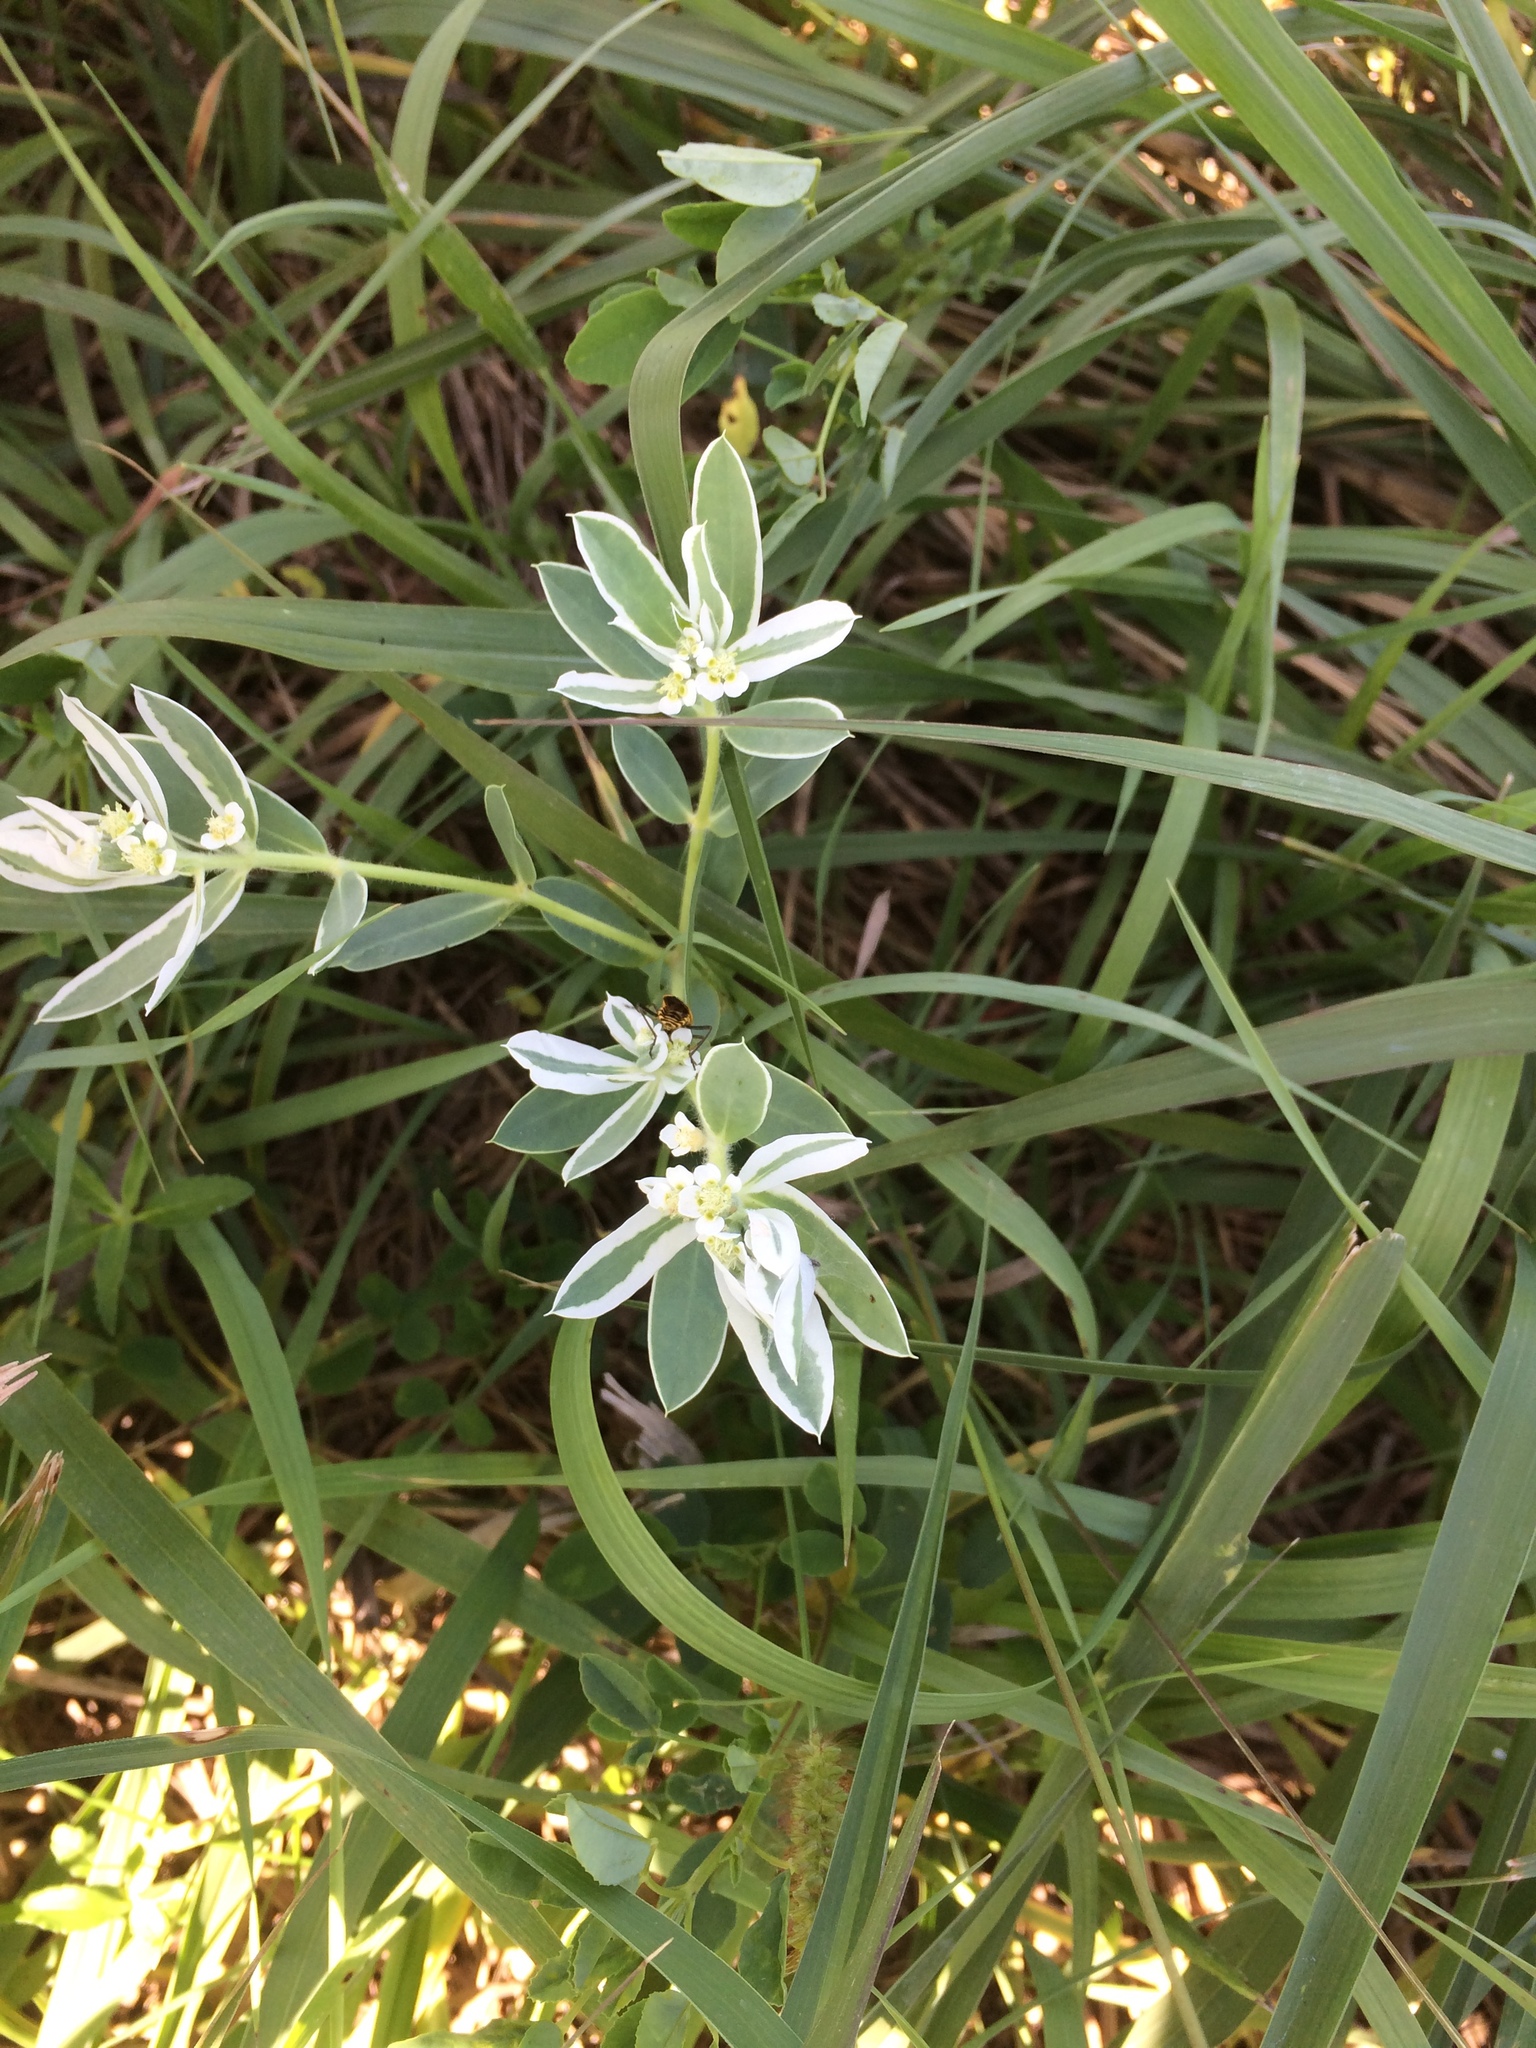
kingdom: Plantae
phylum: Tracheophyta
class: Magnoliopsida
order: Malpighiales
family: Euphorbiaceae
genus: Euphorbia
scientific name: Euphorbia marginata
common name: Ghostweed
